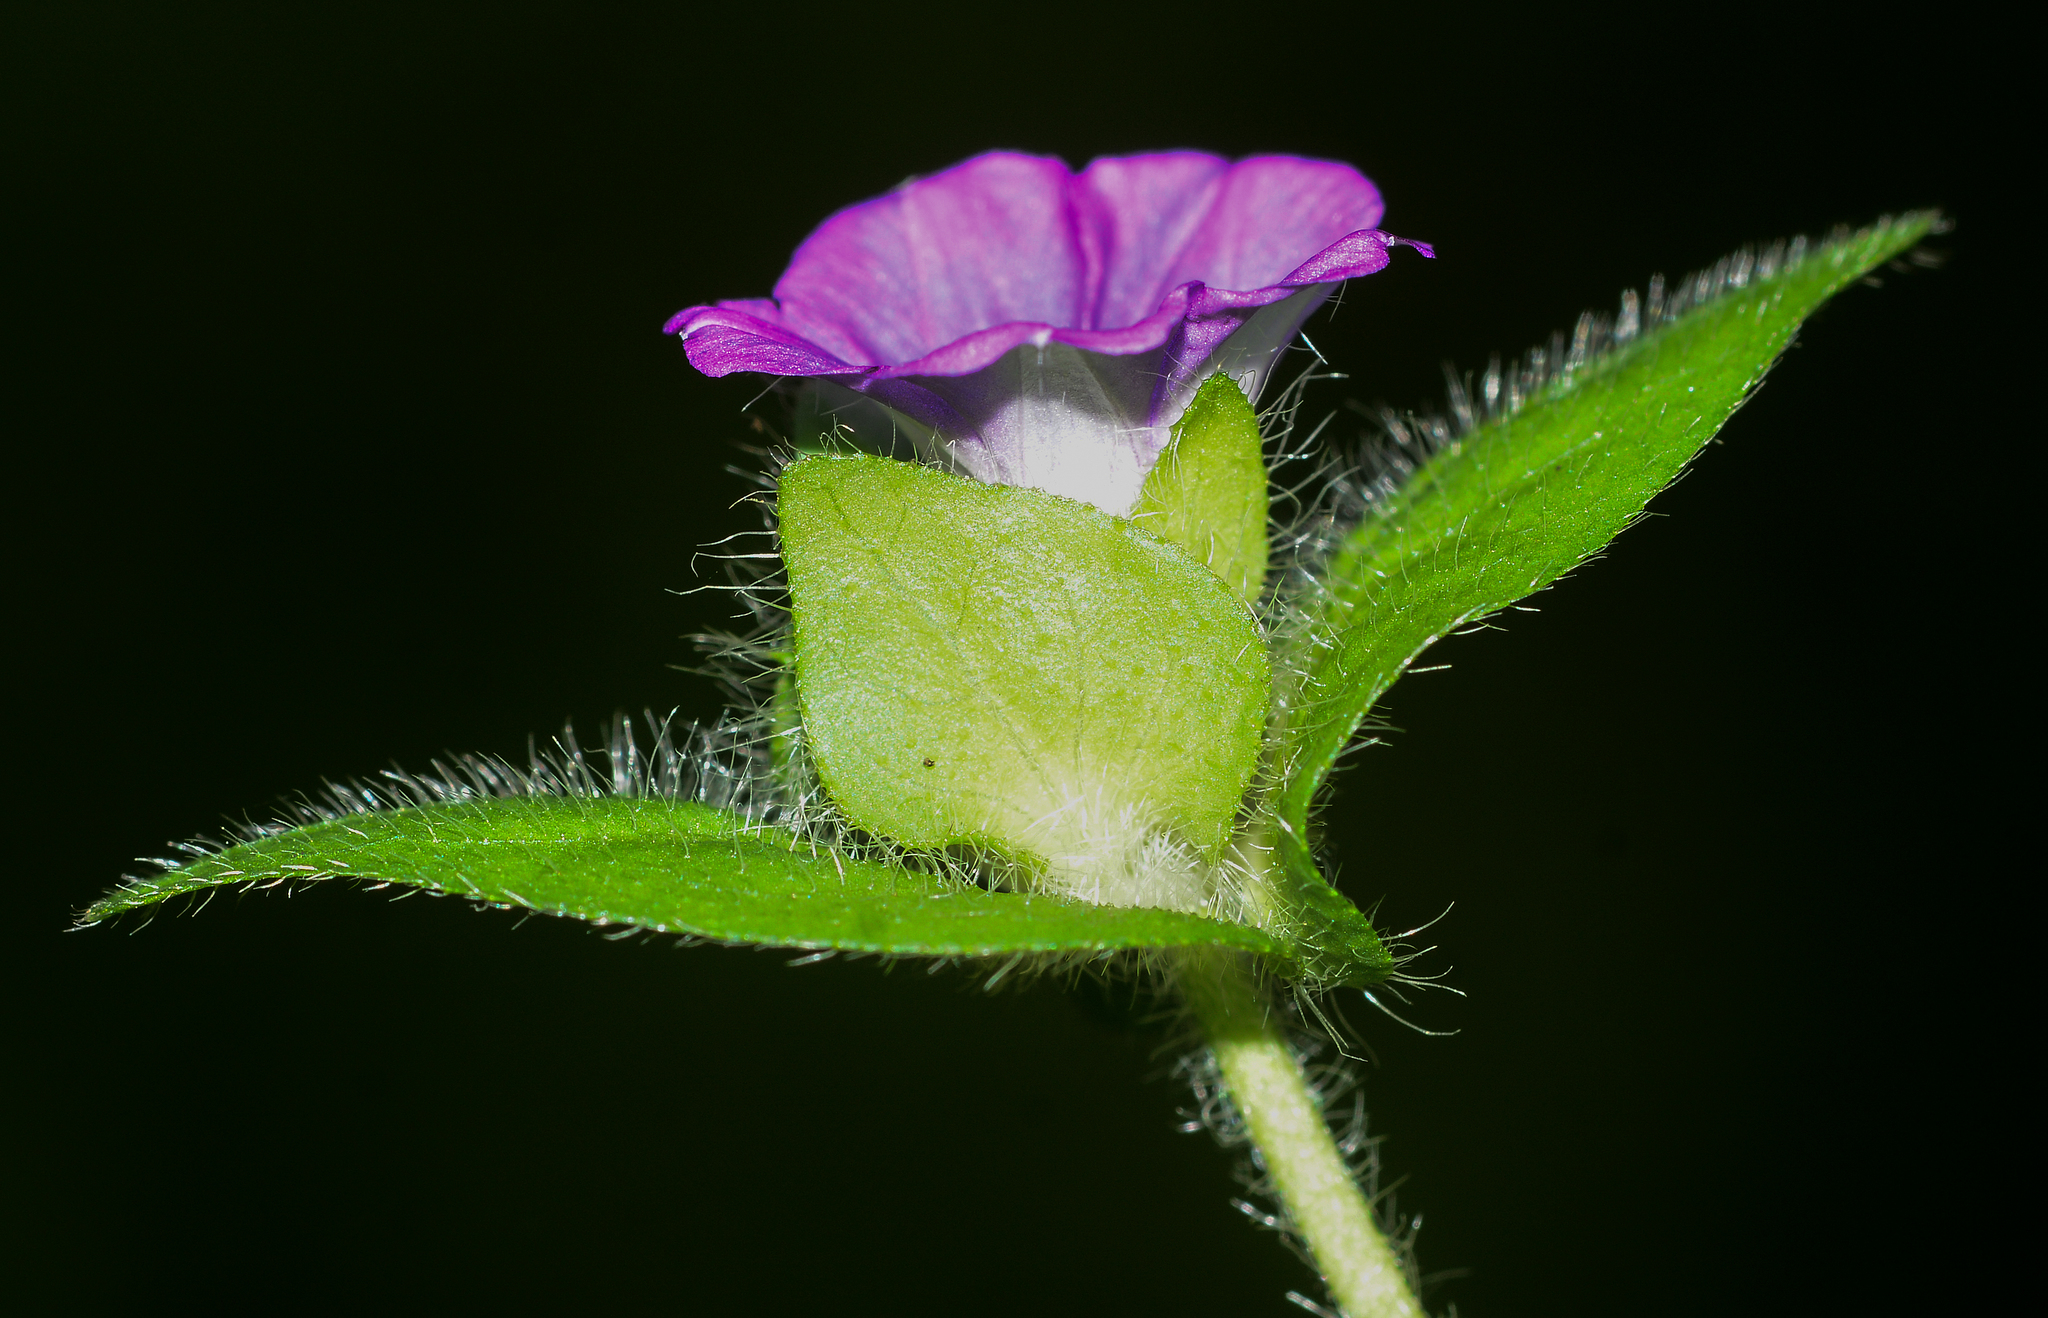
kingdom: Plantae
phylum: Tracheophyta
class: Magnoliopsida
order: Solanales
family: Convolvulaceae
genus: Ipomoea
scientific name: Ipomoea deccana
